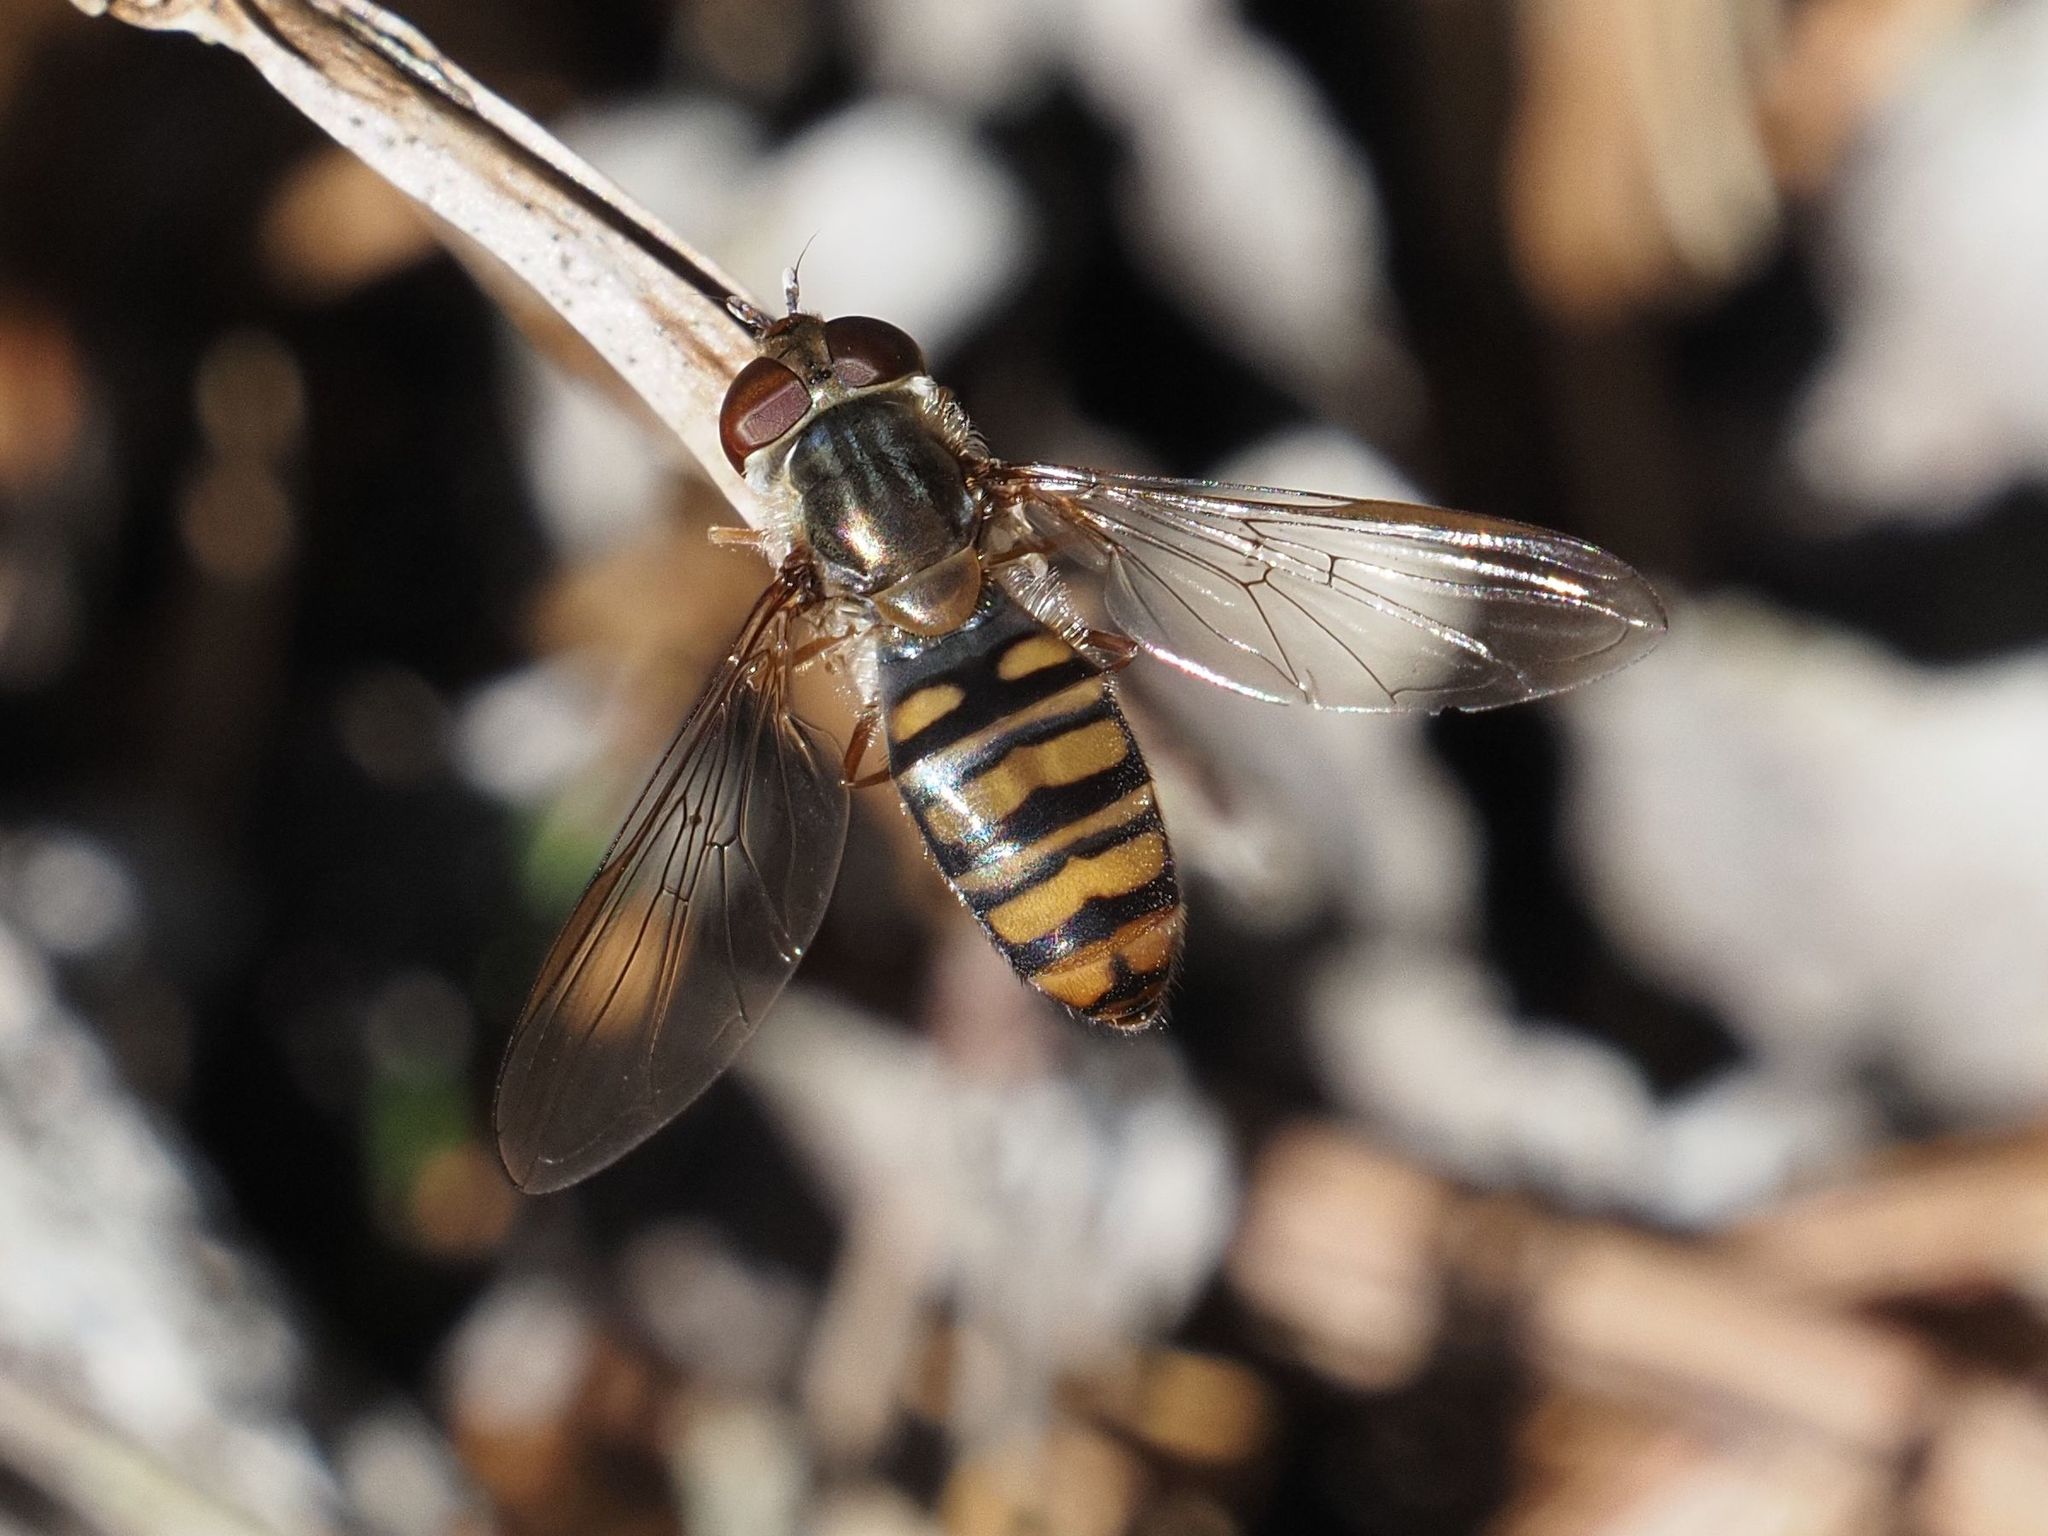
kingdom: Animalia
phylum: Arthropoda
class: Insecta
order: Diptera
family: Syrphidae
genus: Episyrphus
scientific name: Episyrphus balteatus
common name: Marmalade hoverfly
